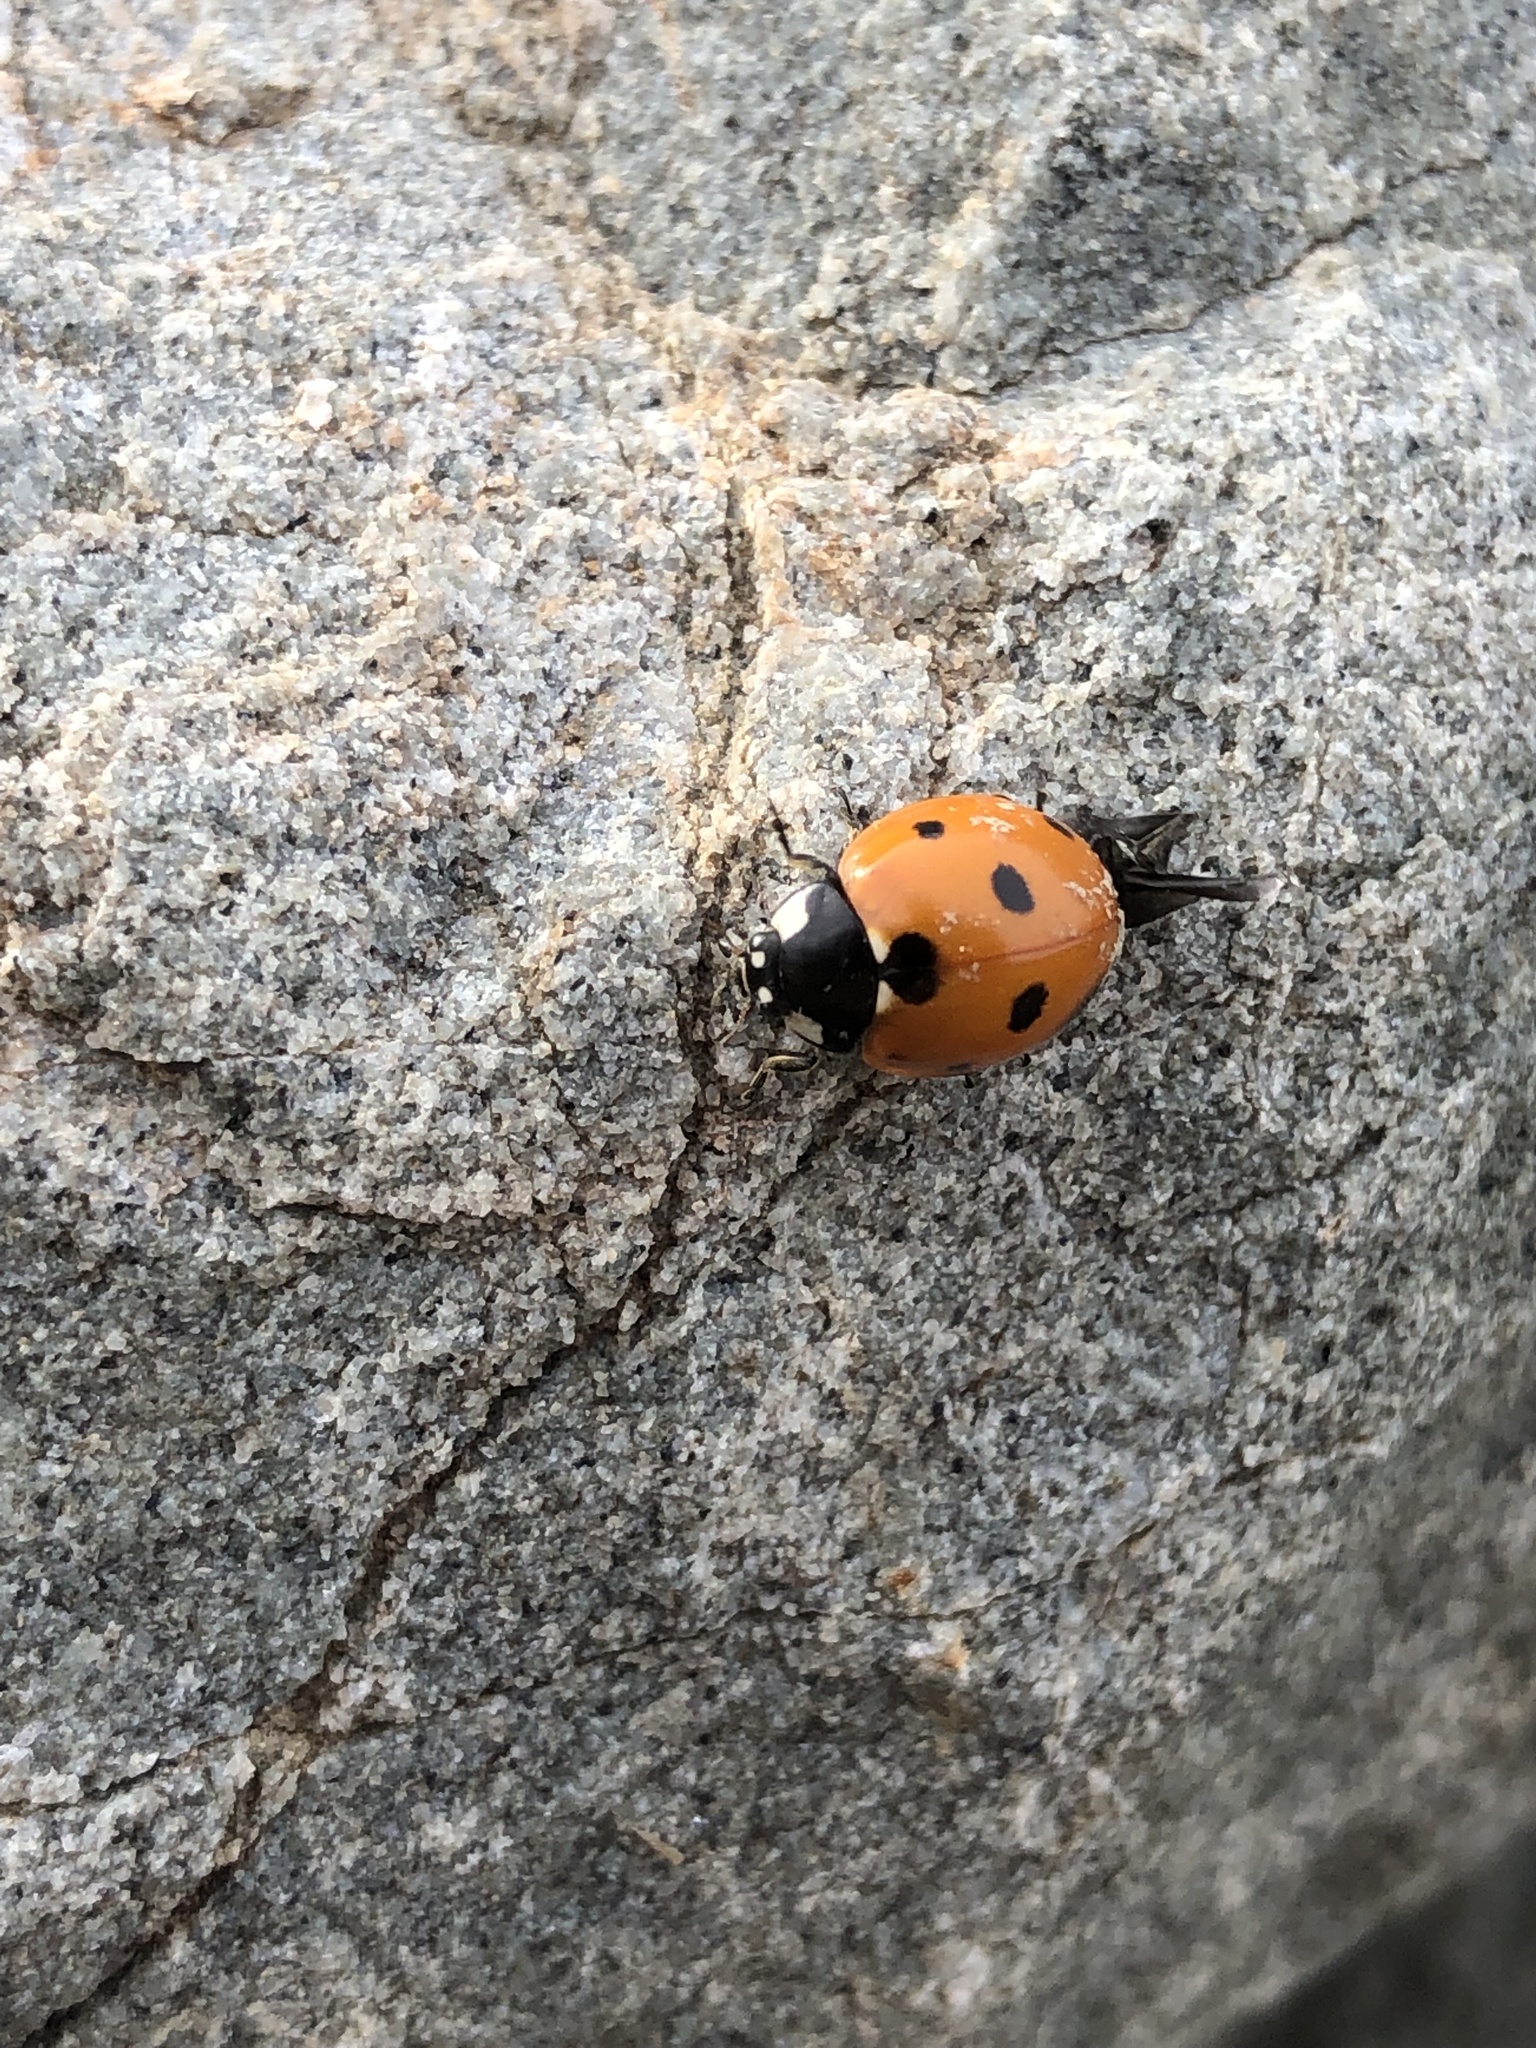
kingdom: Animalia
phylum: Arthropoda
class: Insecta
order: Coleoptera
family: Coccinellidae
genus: Coccinella
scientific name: Coccinella septempunctata
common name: Sevenspotted lady beetle
